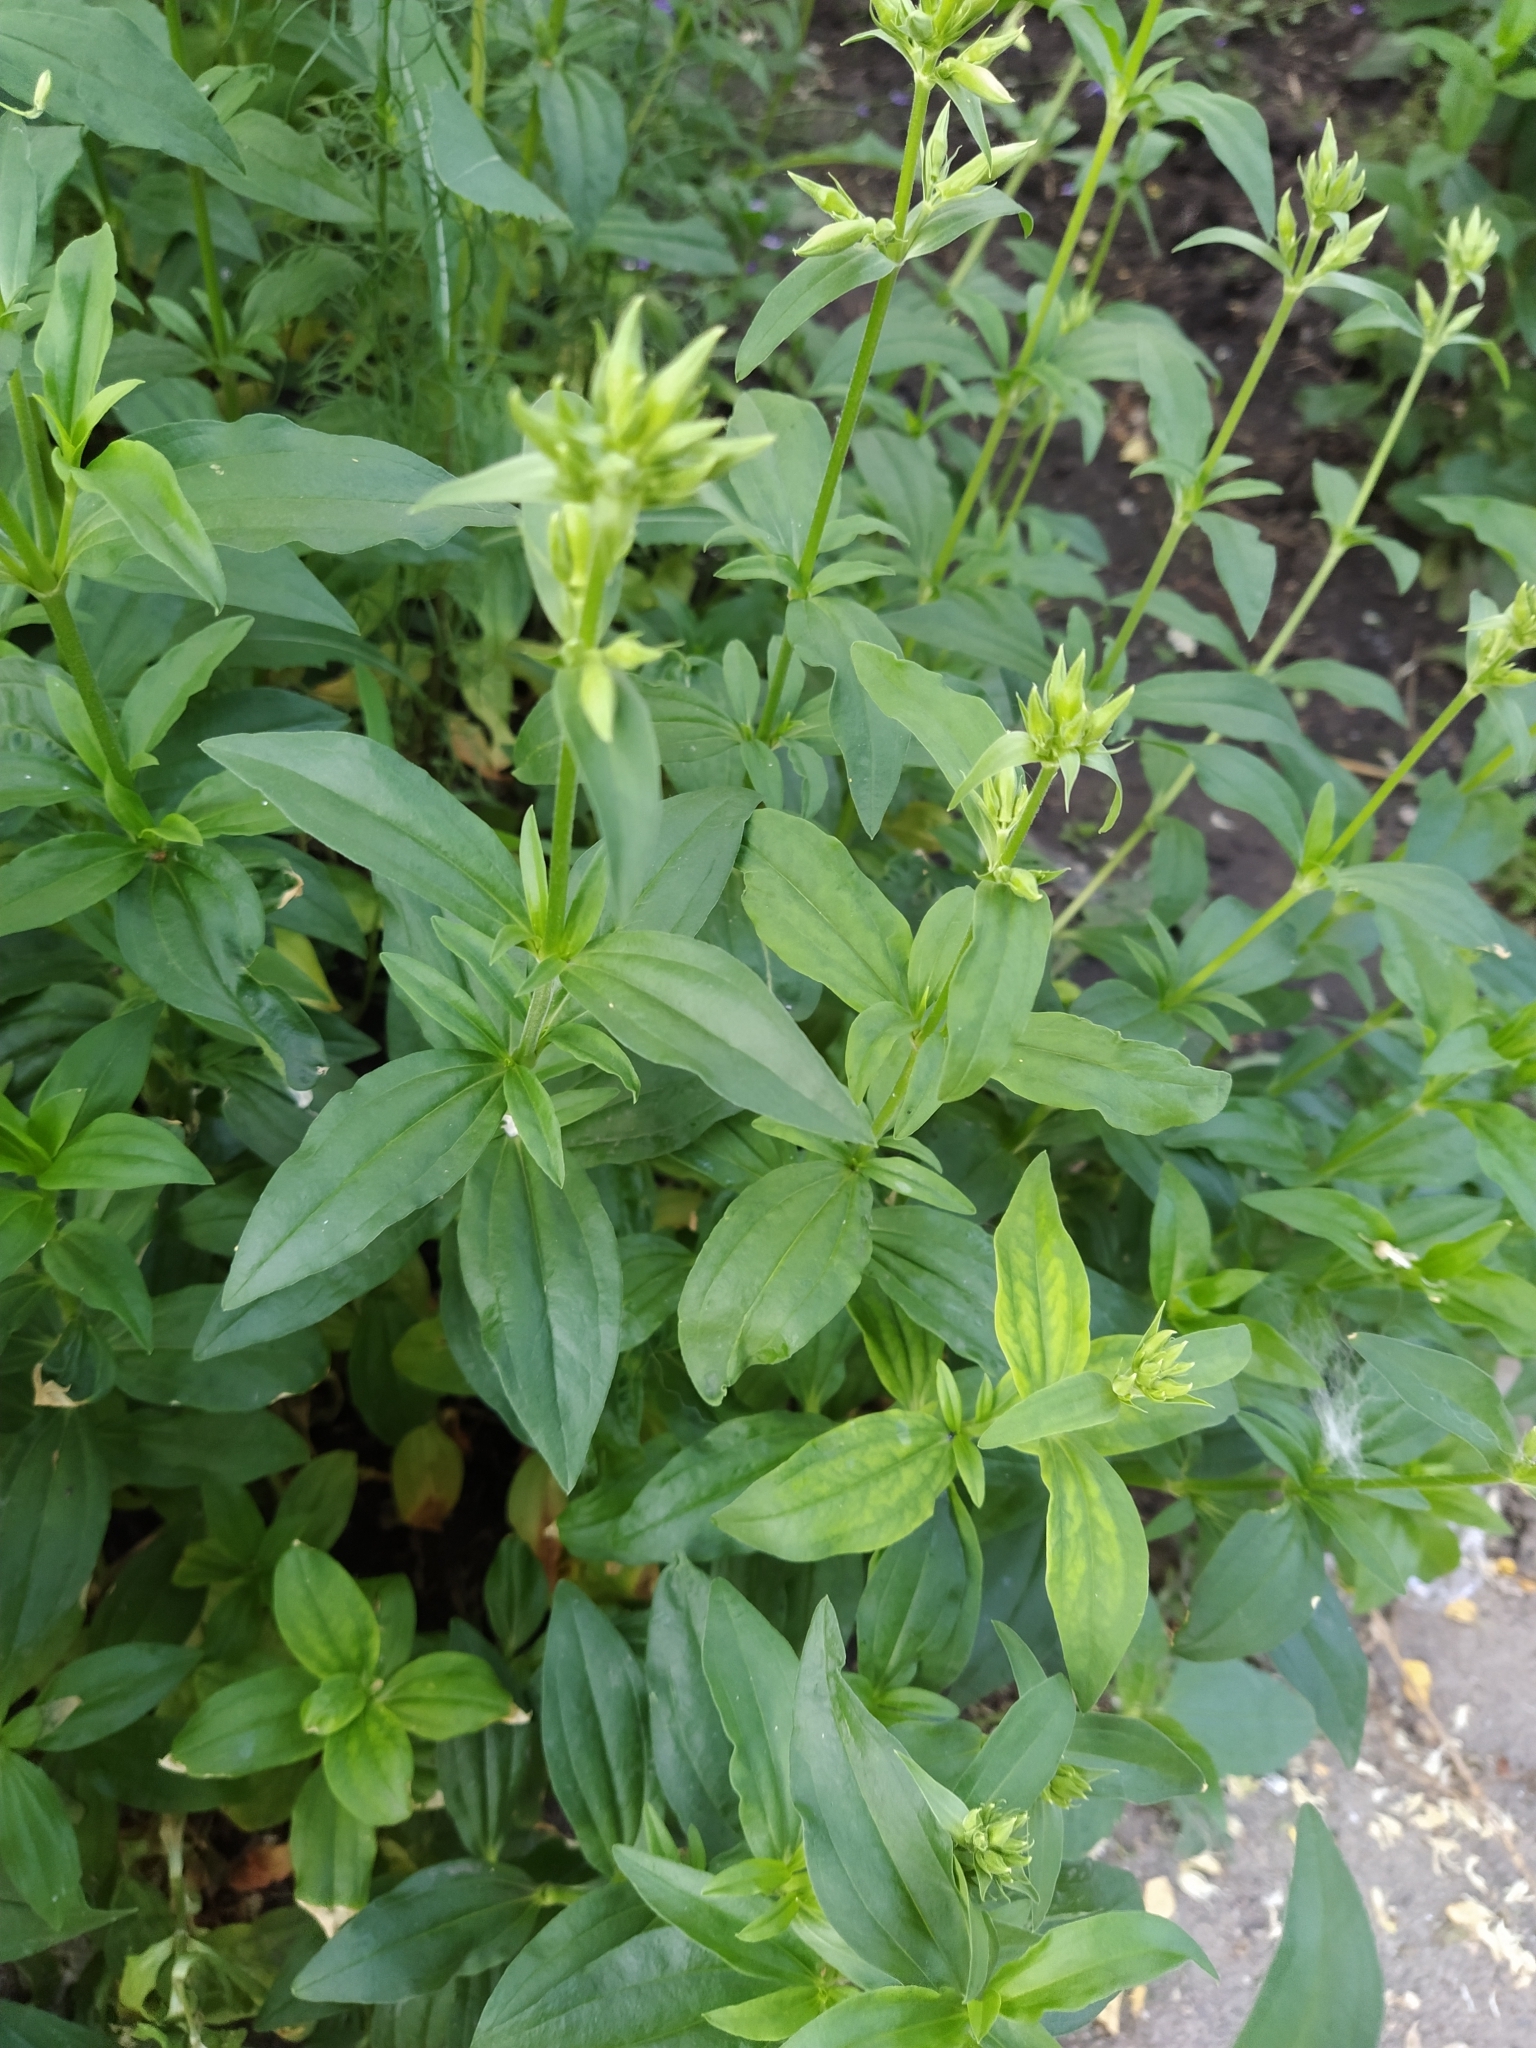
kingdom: Plantae
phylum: Tracheophyta
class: Magnoliopsida
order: Caryophyllales
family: Caryophyllaceae
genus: Saponaria
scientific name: Saponaria officinalis
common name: Soapwort
